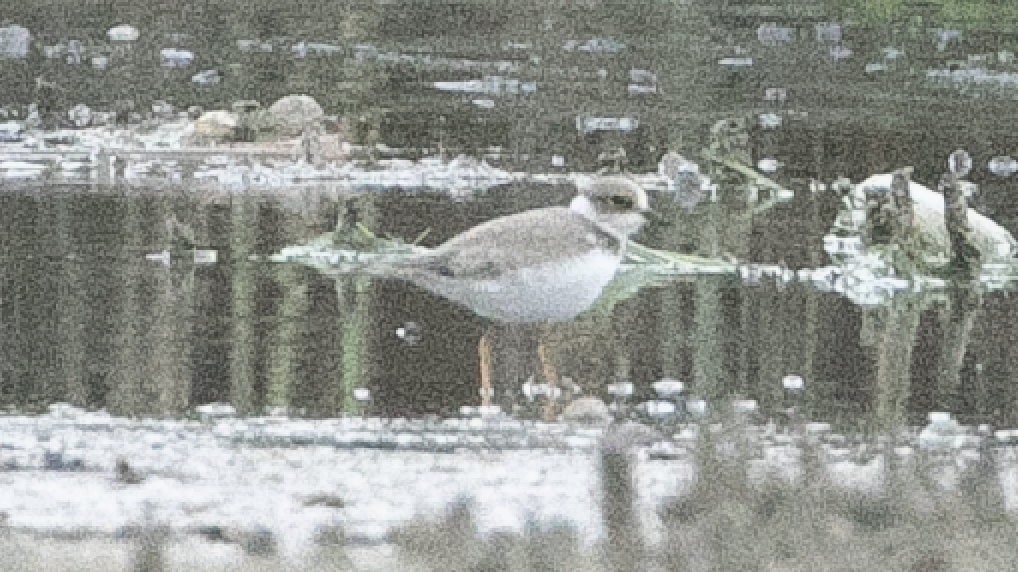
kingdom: Animalia
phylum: Chordata
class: Aves
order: Charadriiformes
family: Charadriidae
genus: Charadrius
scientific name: Charadrius dubius
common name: Little ringed plover
